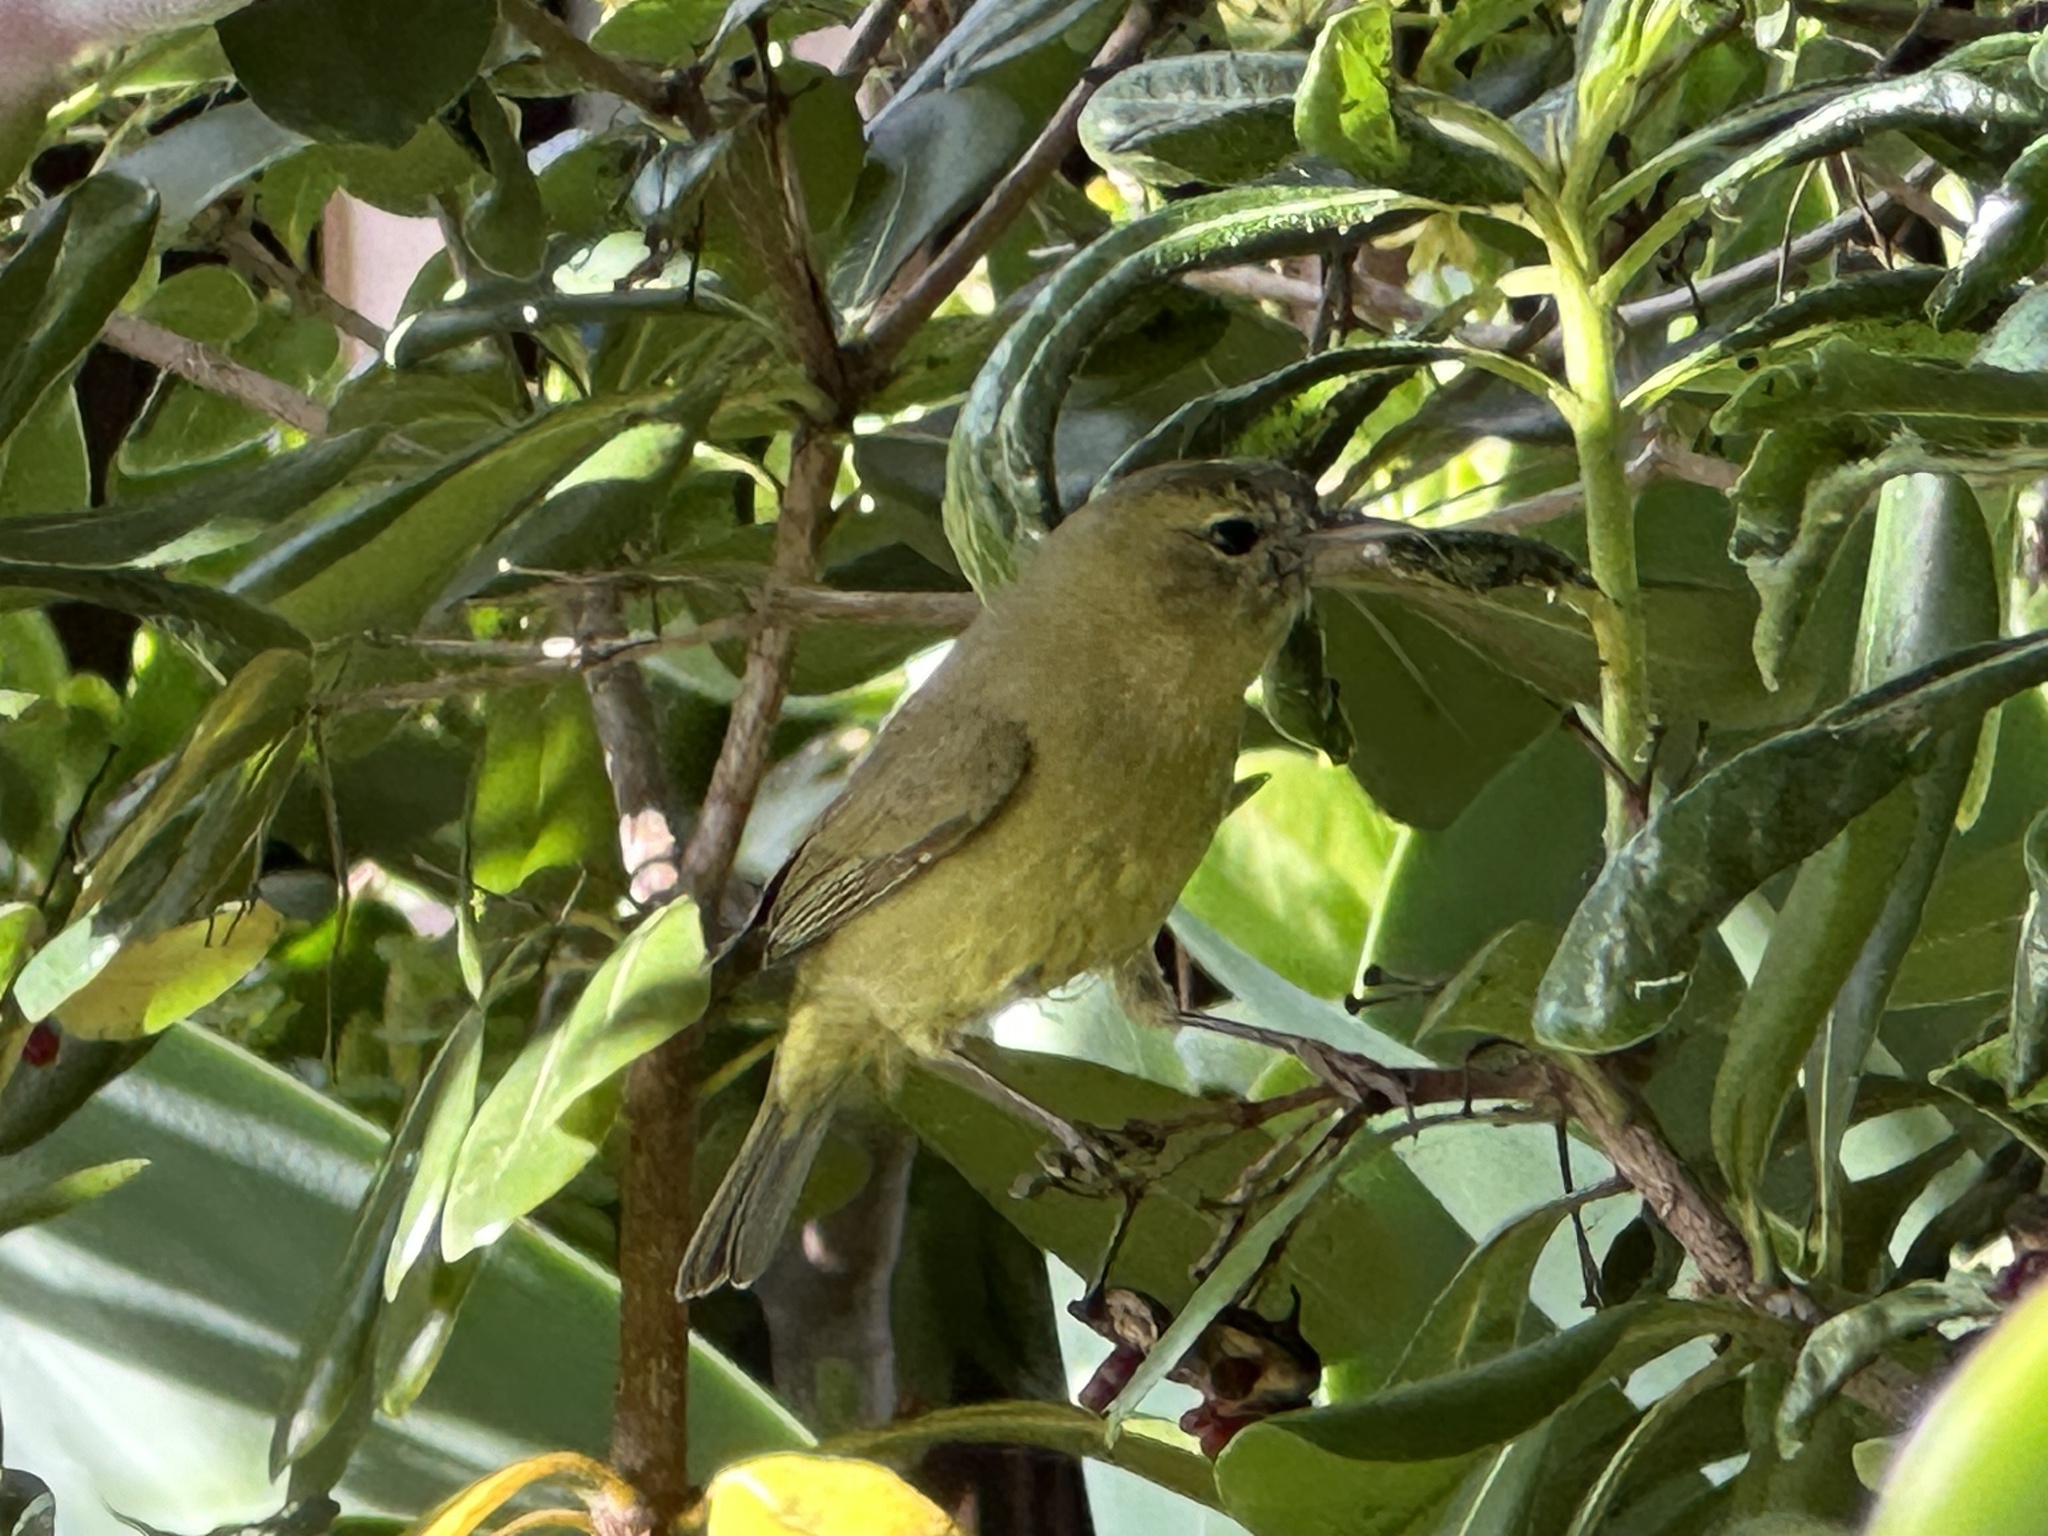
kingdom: Animalia
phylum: Chordata
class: Aves
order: Passeriformes
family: Parulidae
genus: Leiothlypis
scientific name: Leiothlypis celata
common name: Orange-crowned warbler
